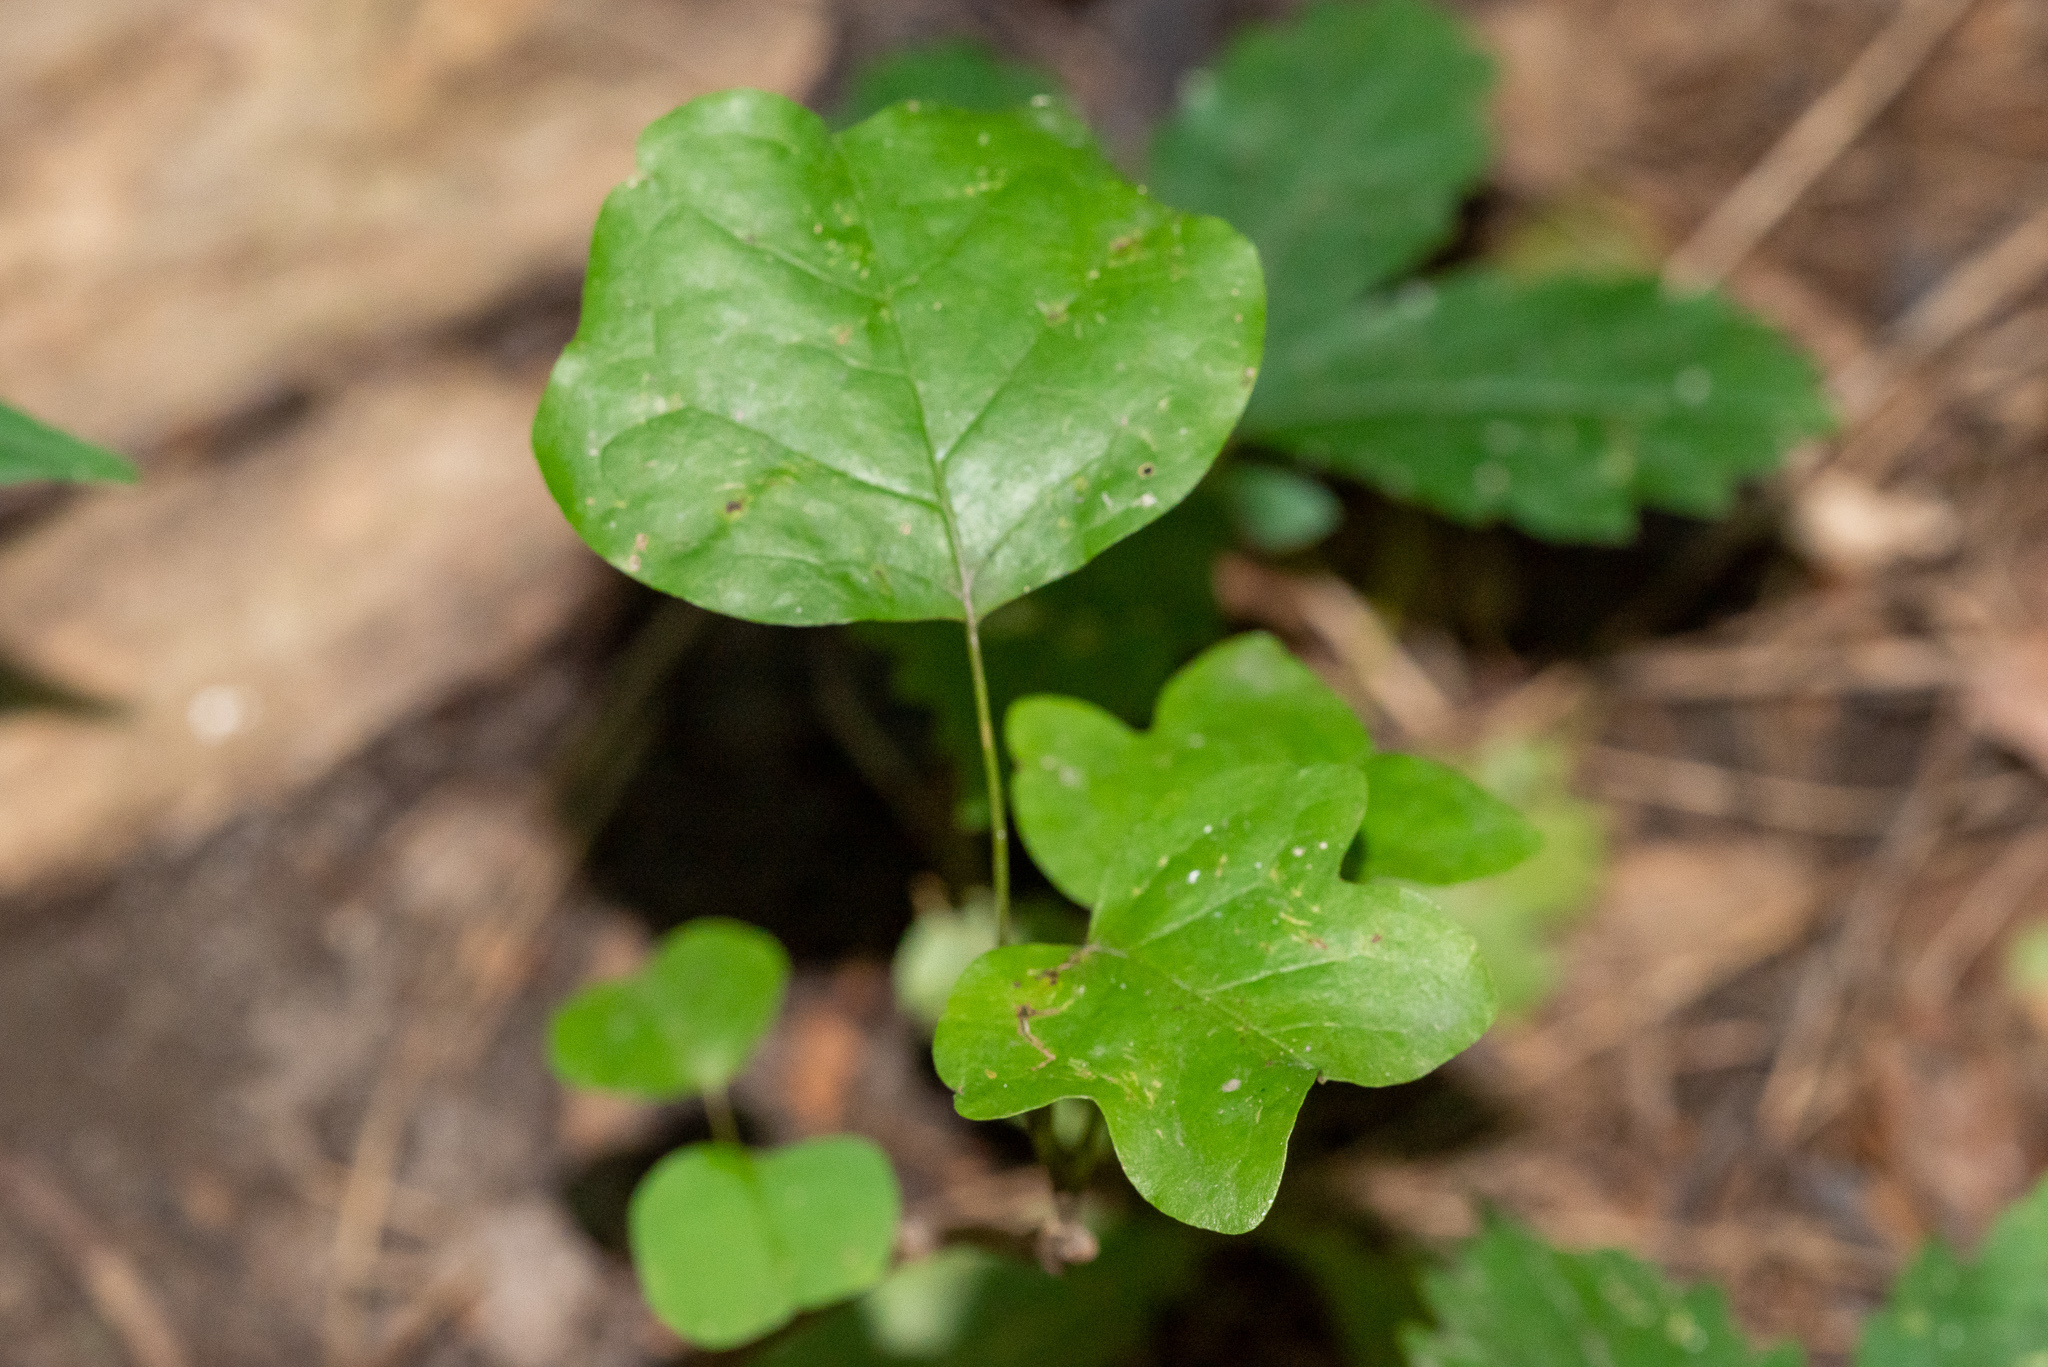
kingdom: Plantae
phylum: Tracheophyta
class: Magnoliopsida
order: Magnoliales
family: Magnoliaceae
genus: Liriodendron
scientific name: Liriodendron tulipifera
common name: Tulip tree
